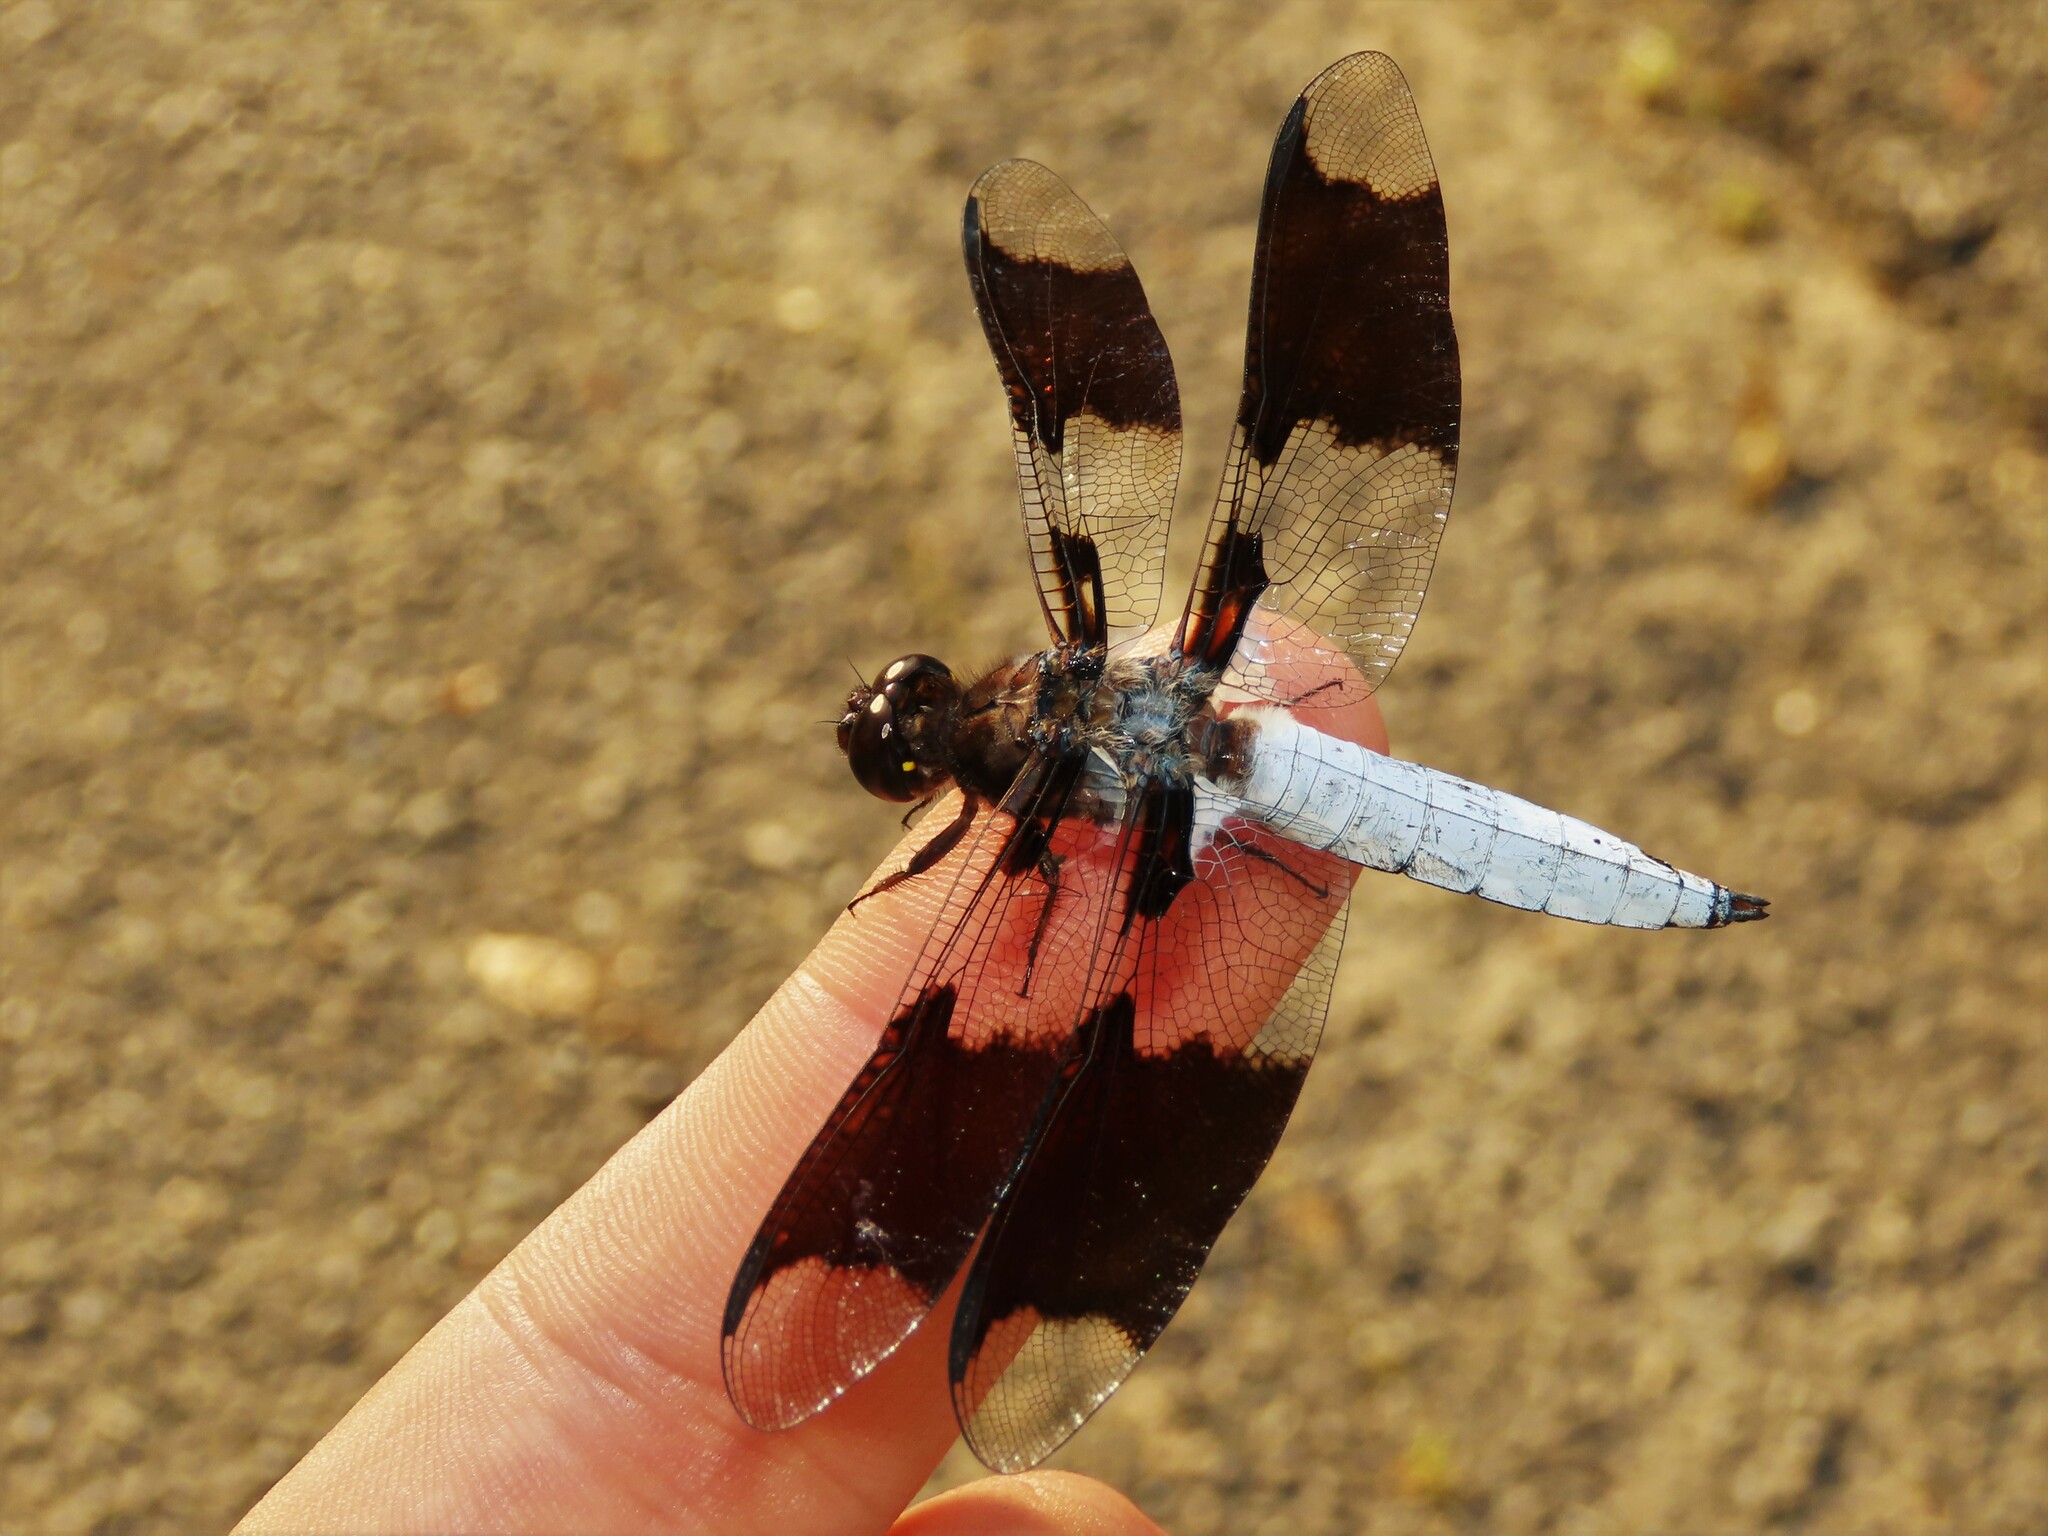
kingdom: Animalia
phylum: Arthropoda
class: Insecta
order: Odonata
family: Libellulidae
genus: Plathemis
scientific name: Plathemis lydia
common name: Common whitetail
